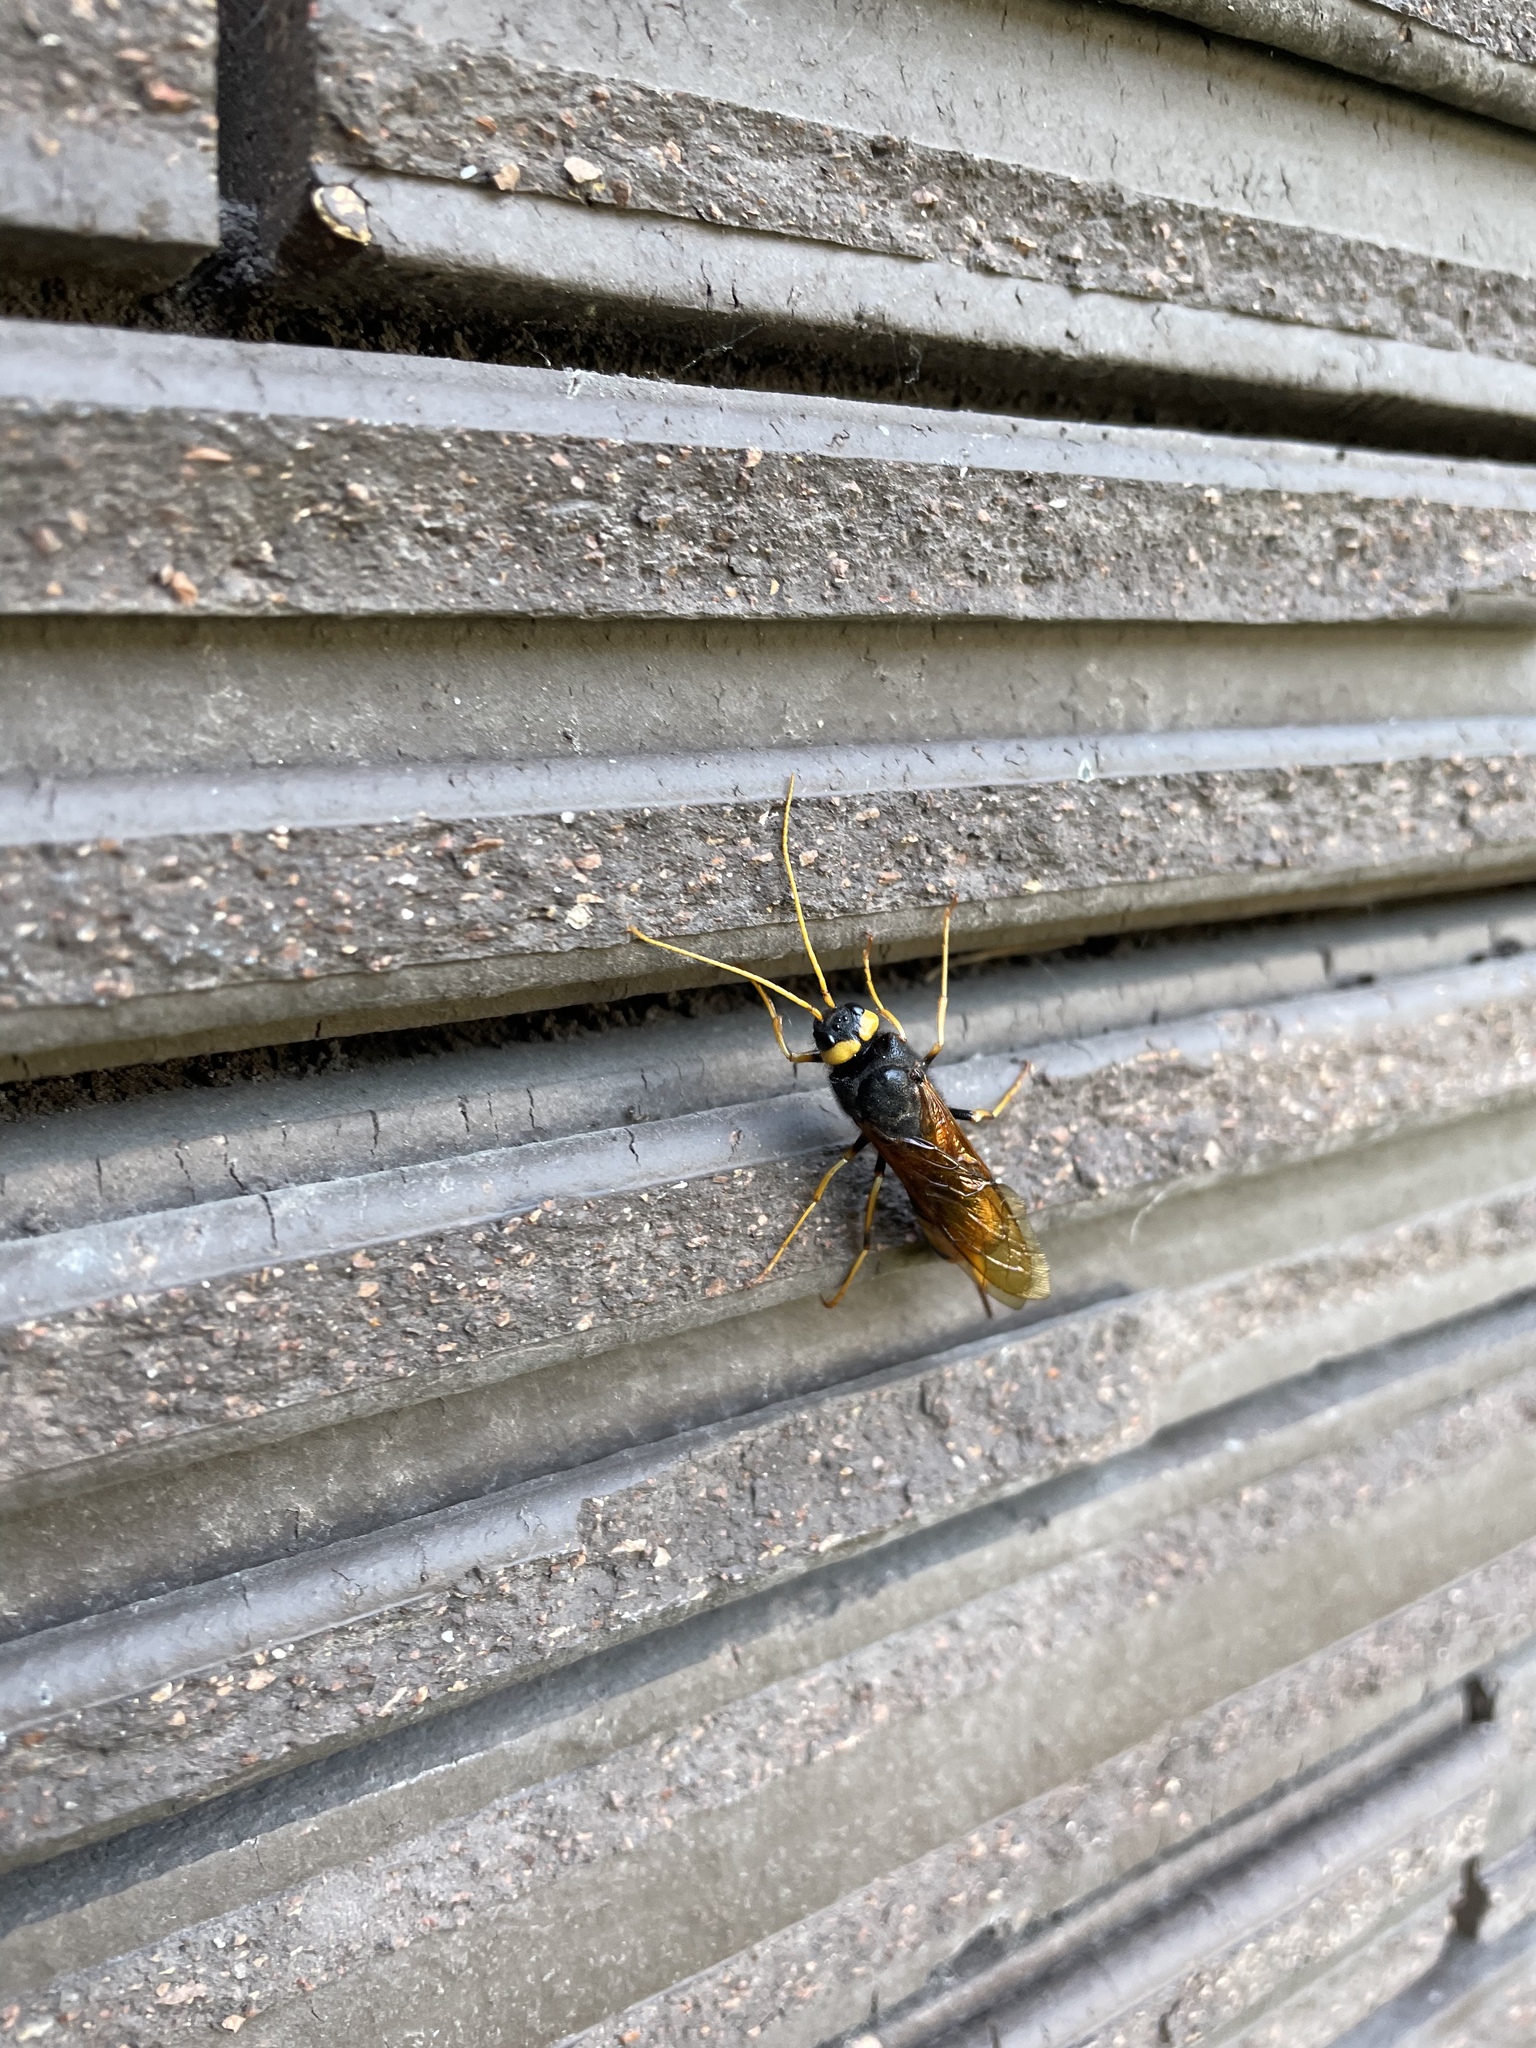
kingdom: Animalia
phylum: Arthropoda
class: Insecta
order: Hymenoptera
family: Siricidae
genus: Urocerus
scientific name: Urocerus augur
